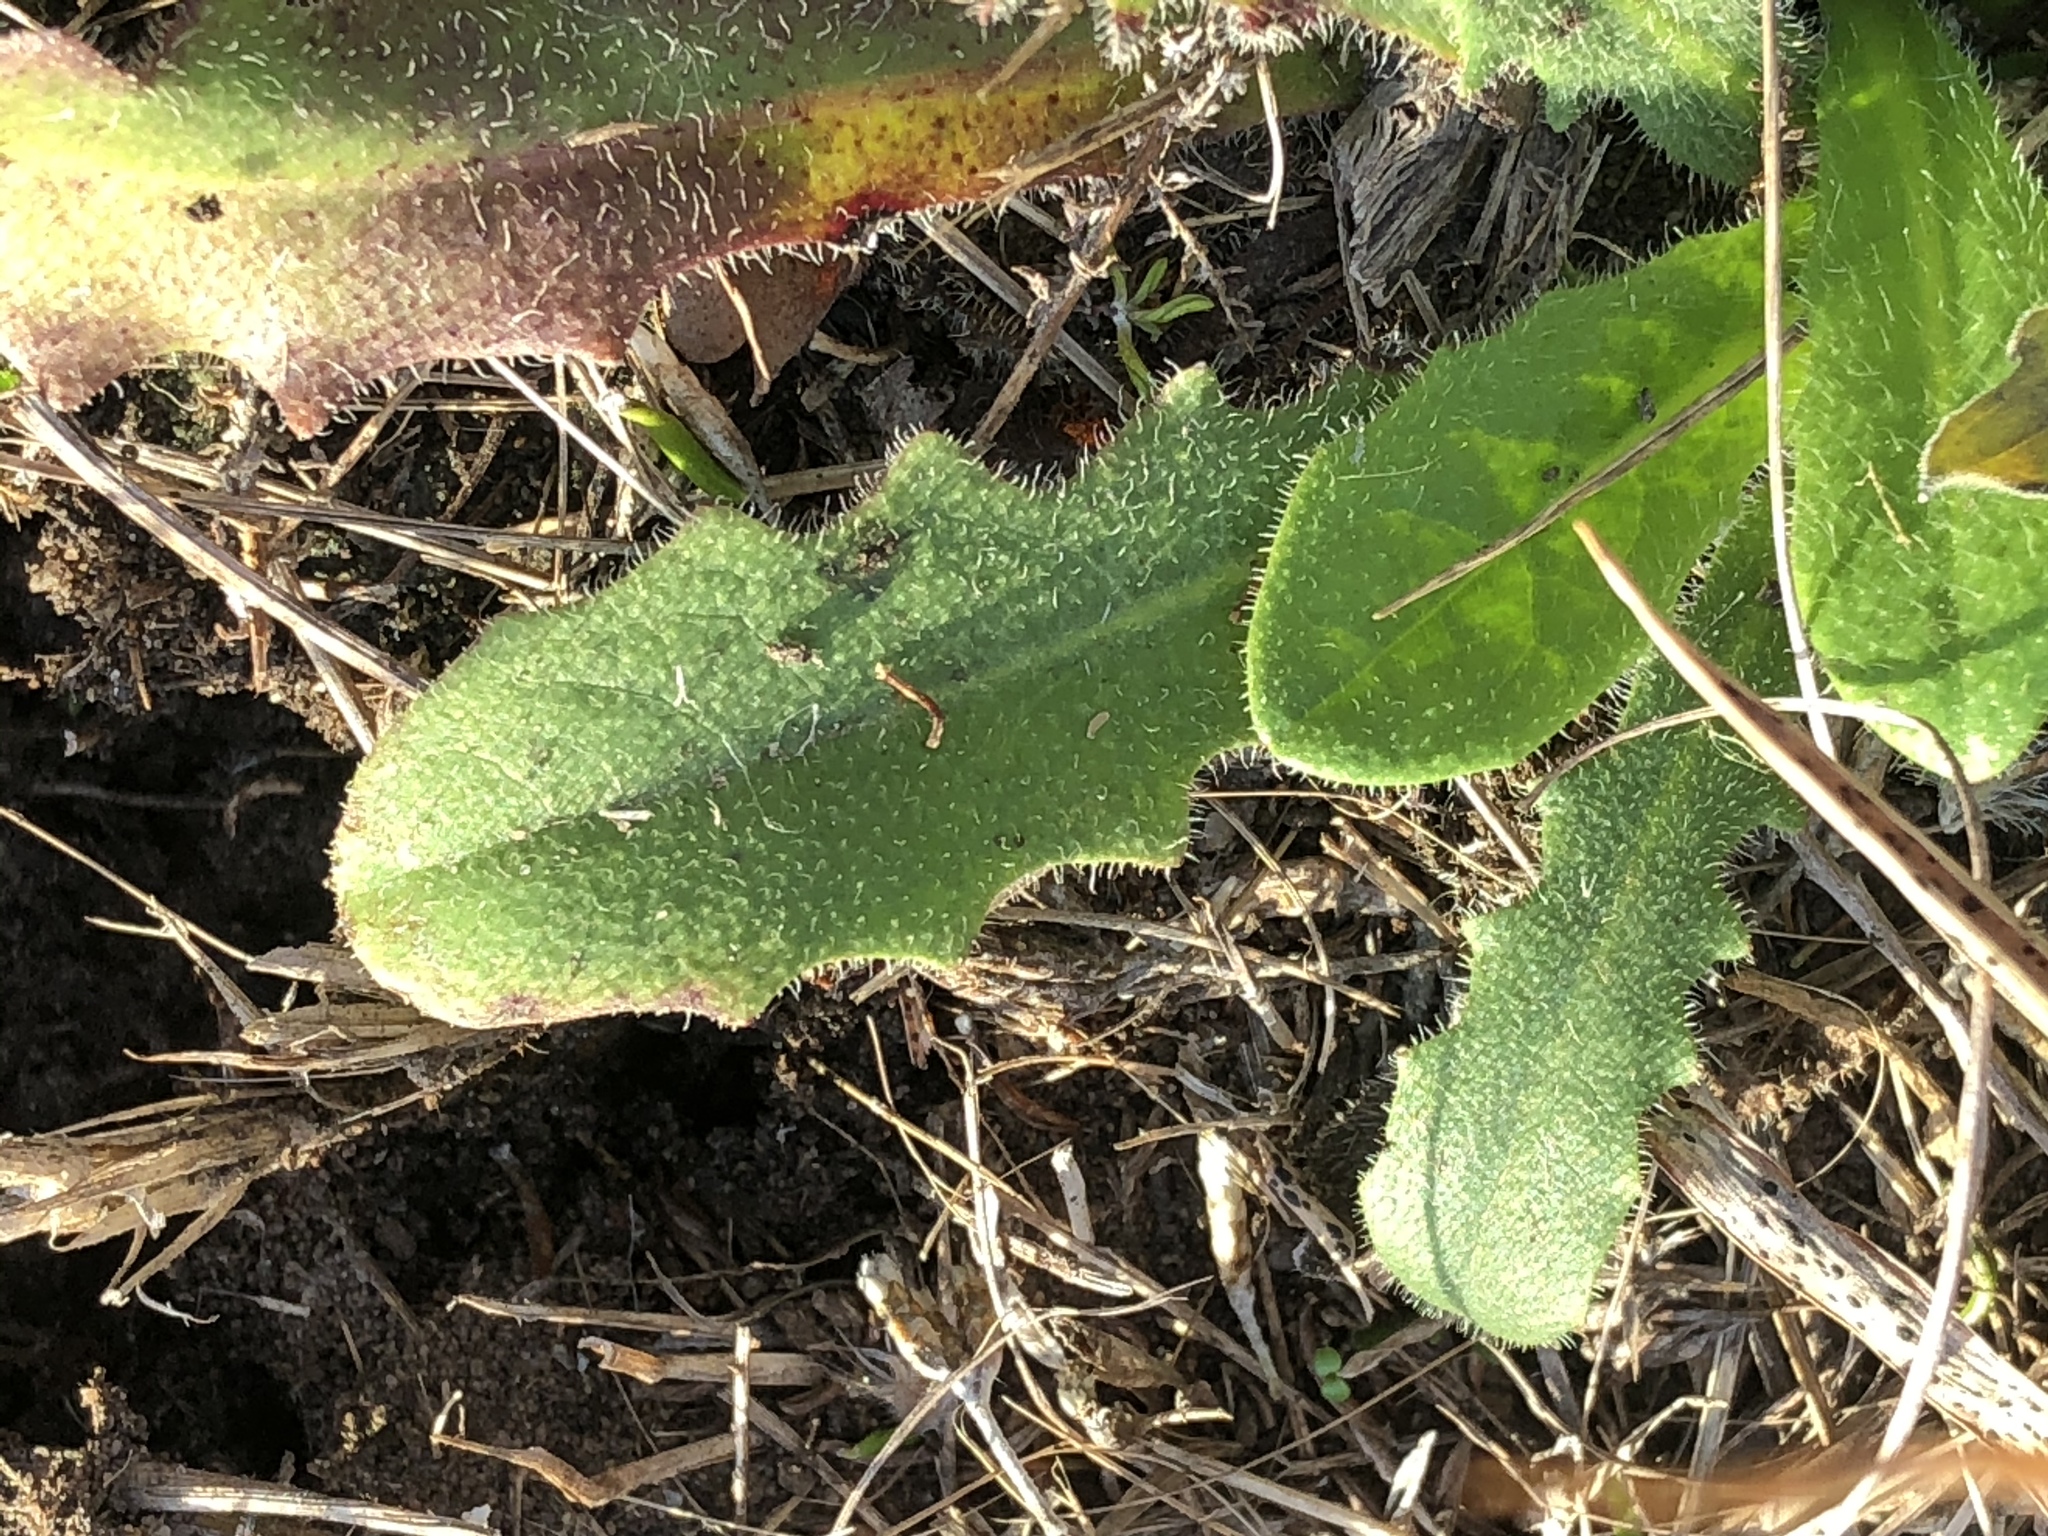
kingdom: Plantae
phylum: Tracheophyta
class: Magnoliopsida
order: Asterales
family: Asteraceae
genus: Hypochaeris
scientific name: Hypochaeris radicata
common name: Flatweed
